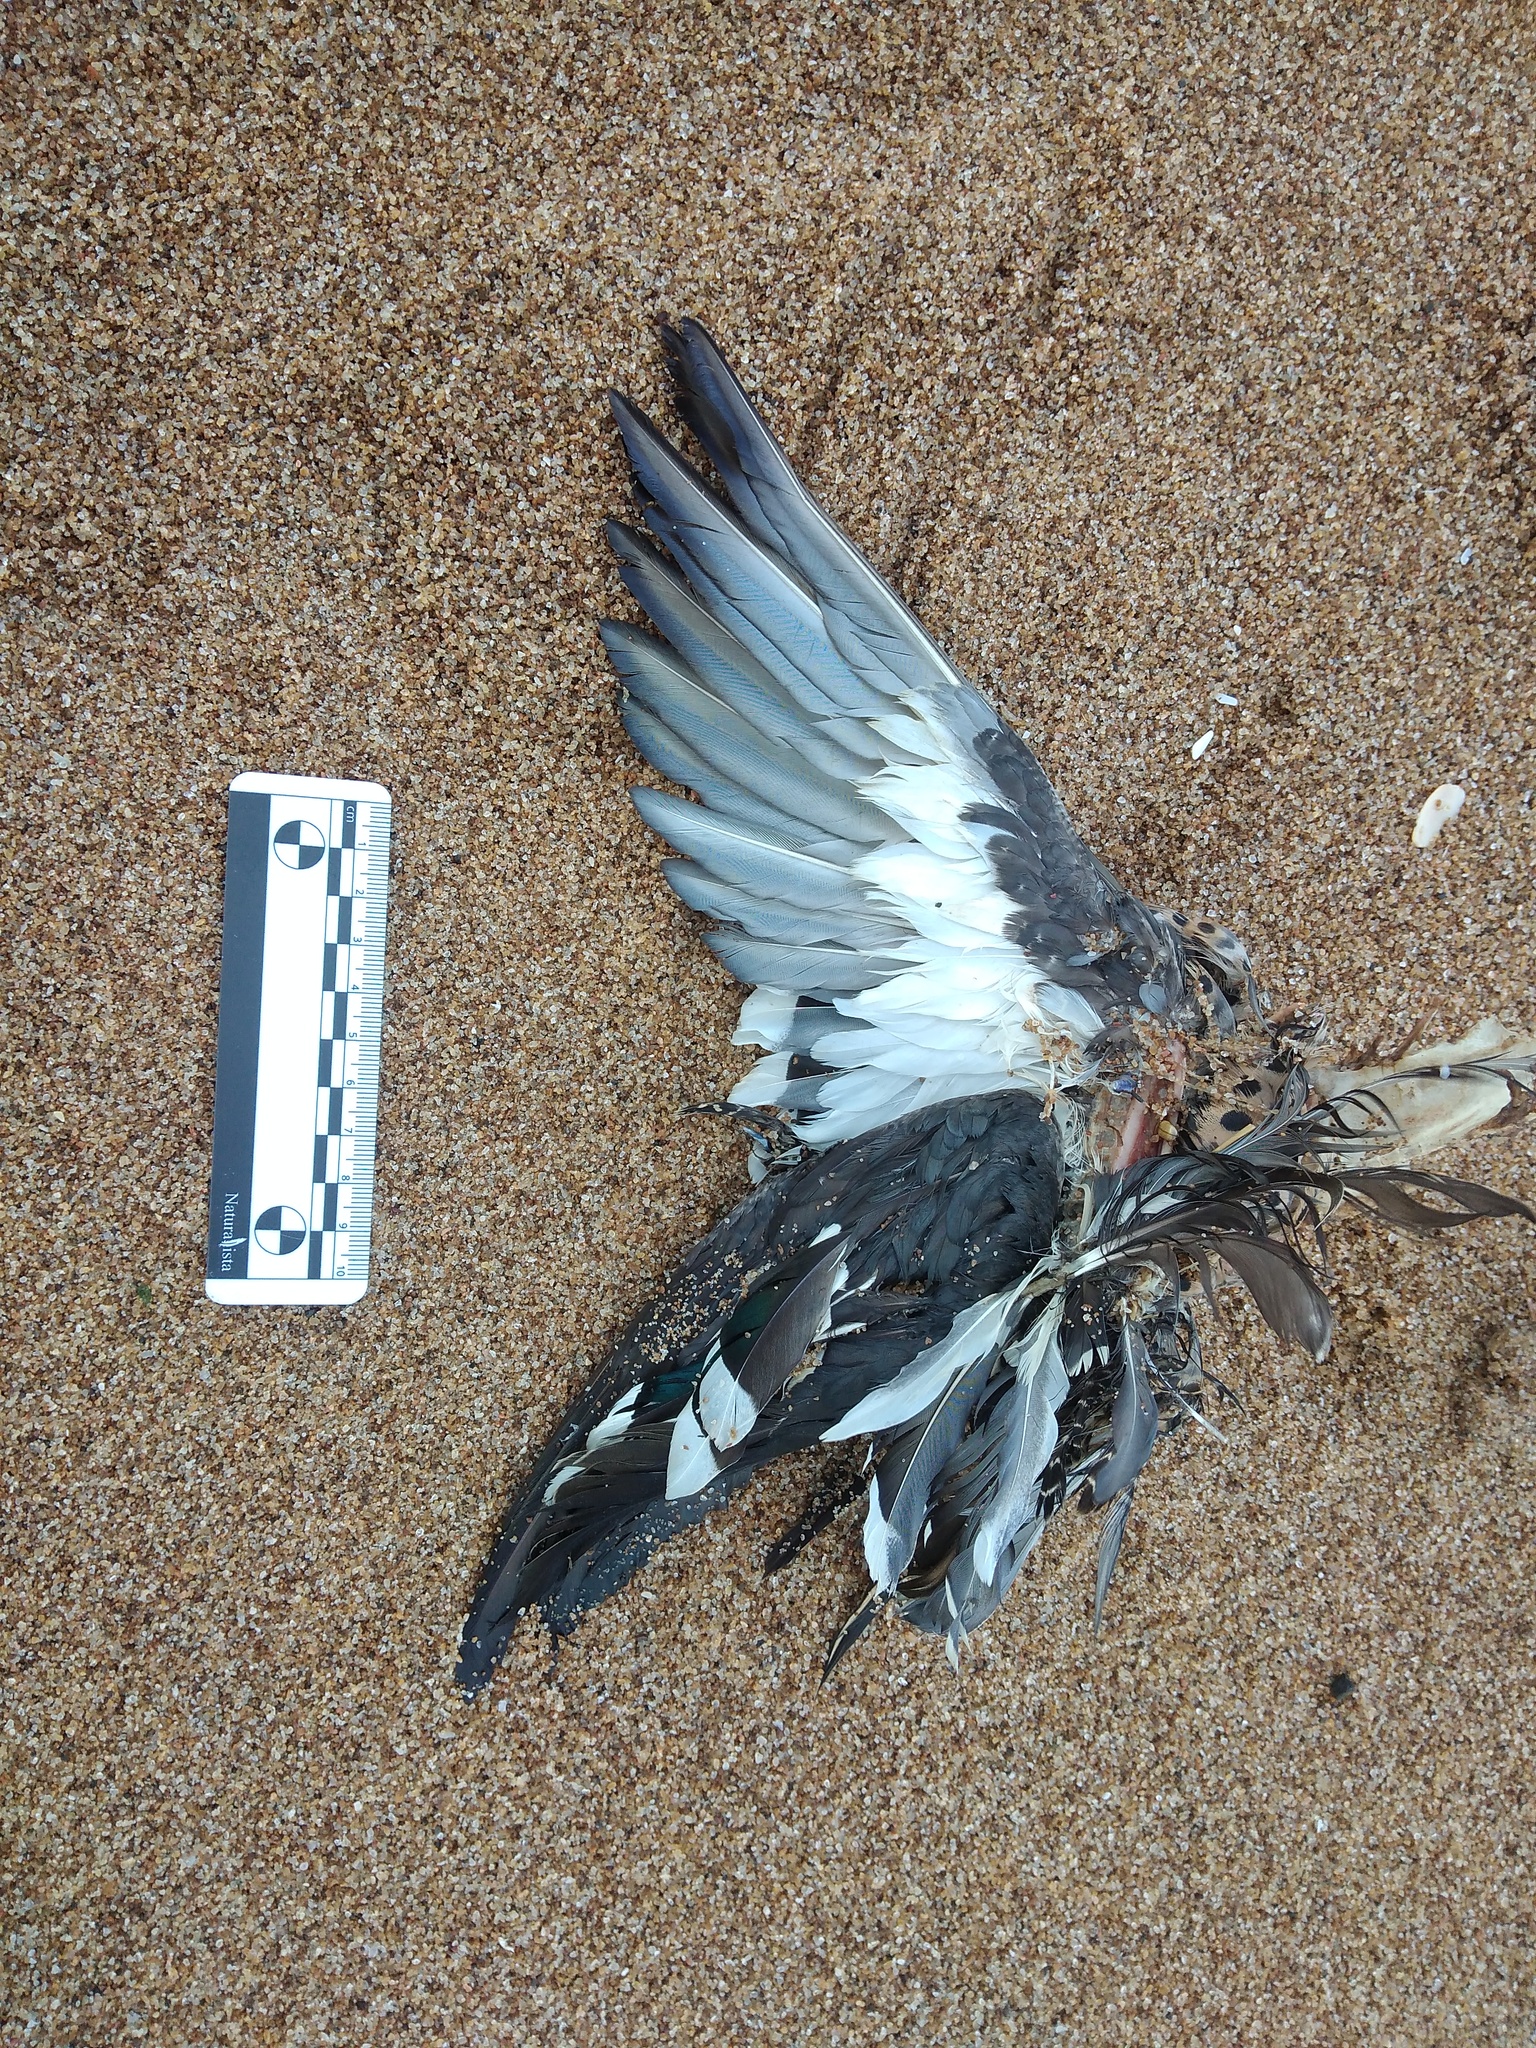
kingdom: Animalia
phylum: Chordata
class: Aves
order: Anseriformes
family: Anatidae
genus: Spatula
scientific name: Spatula versicolor
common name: Silver teal
